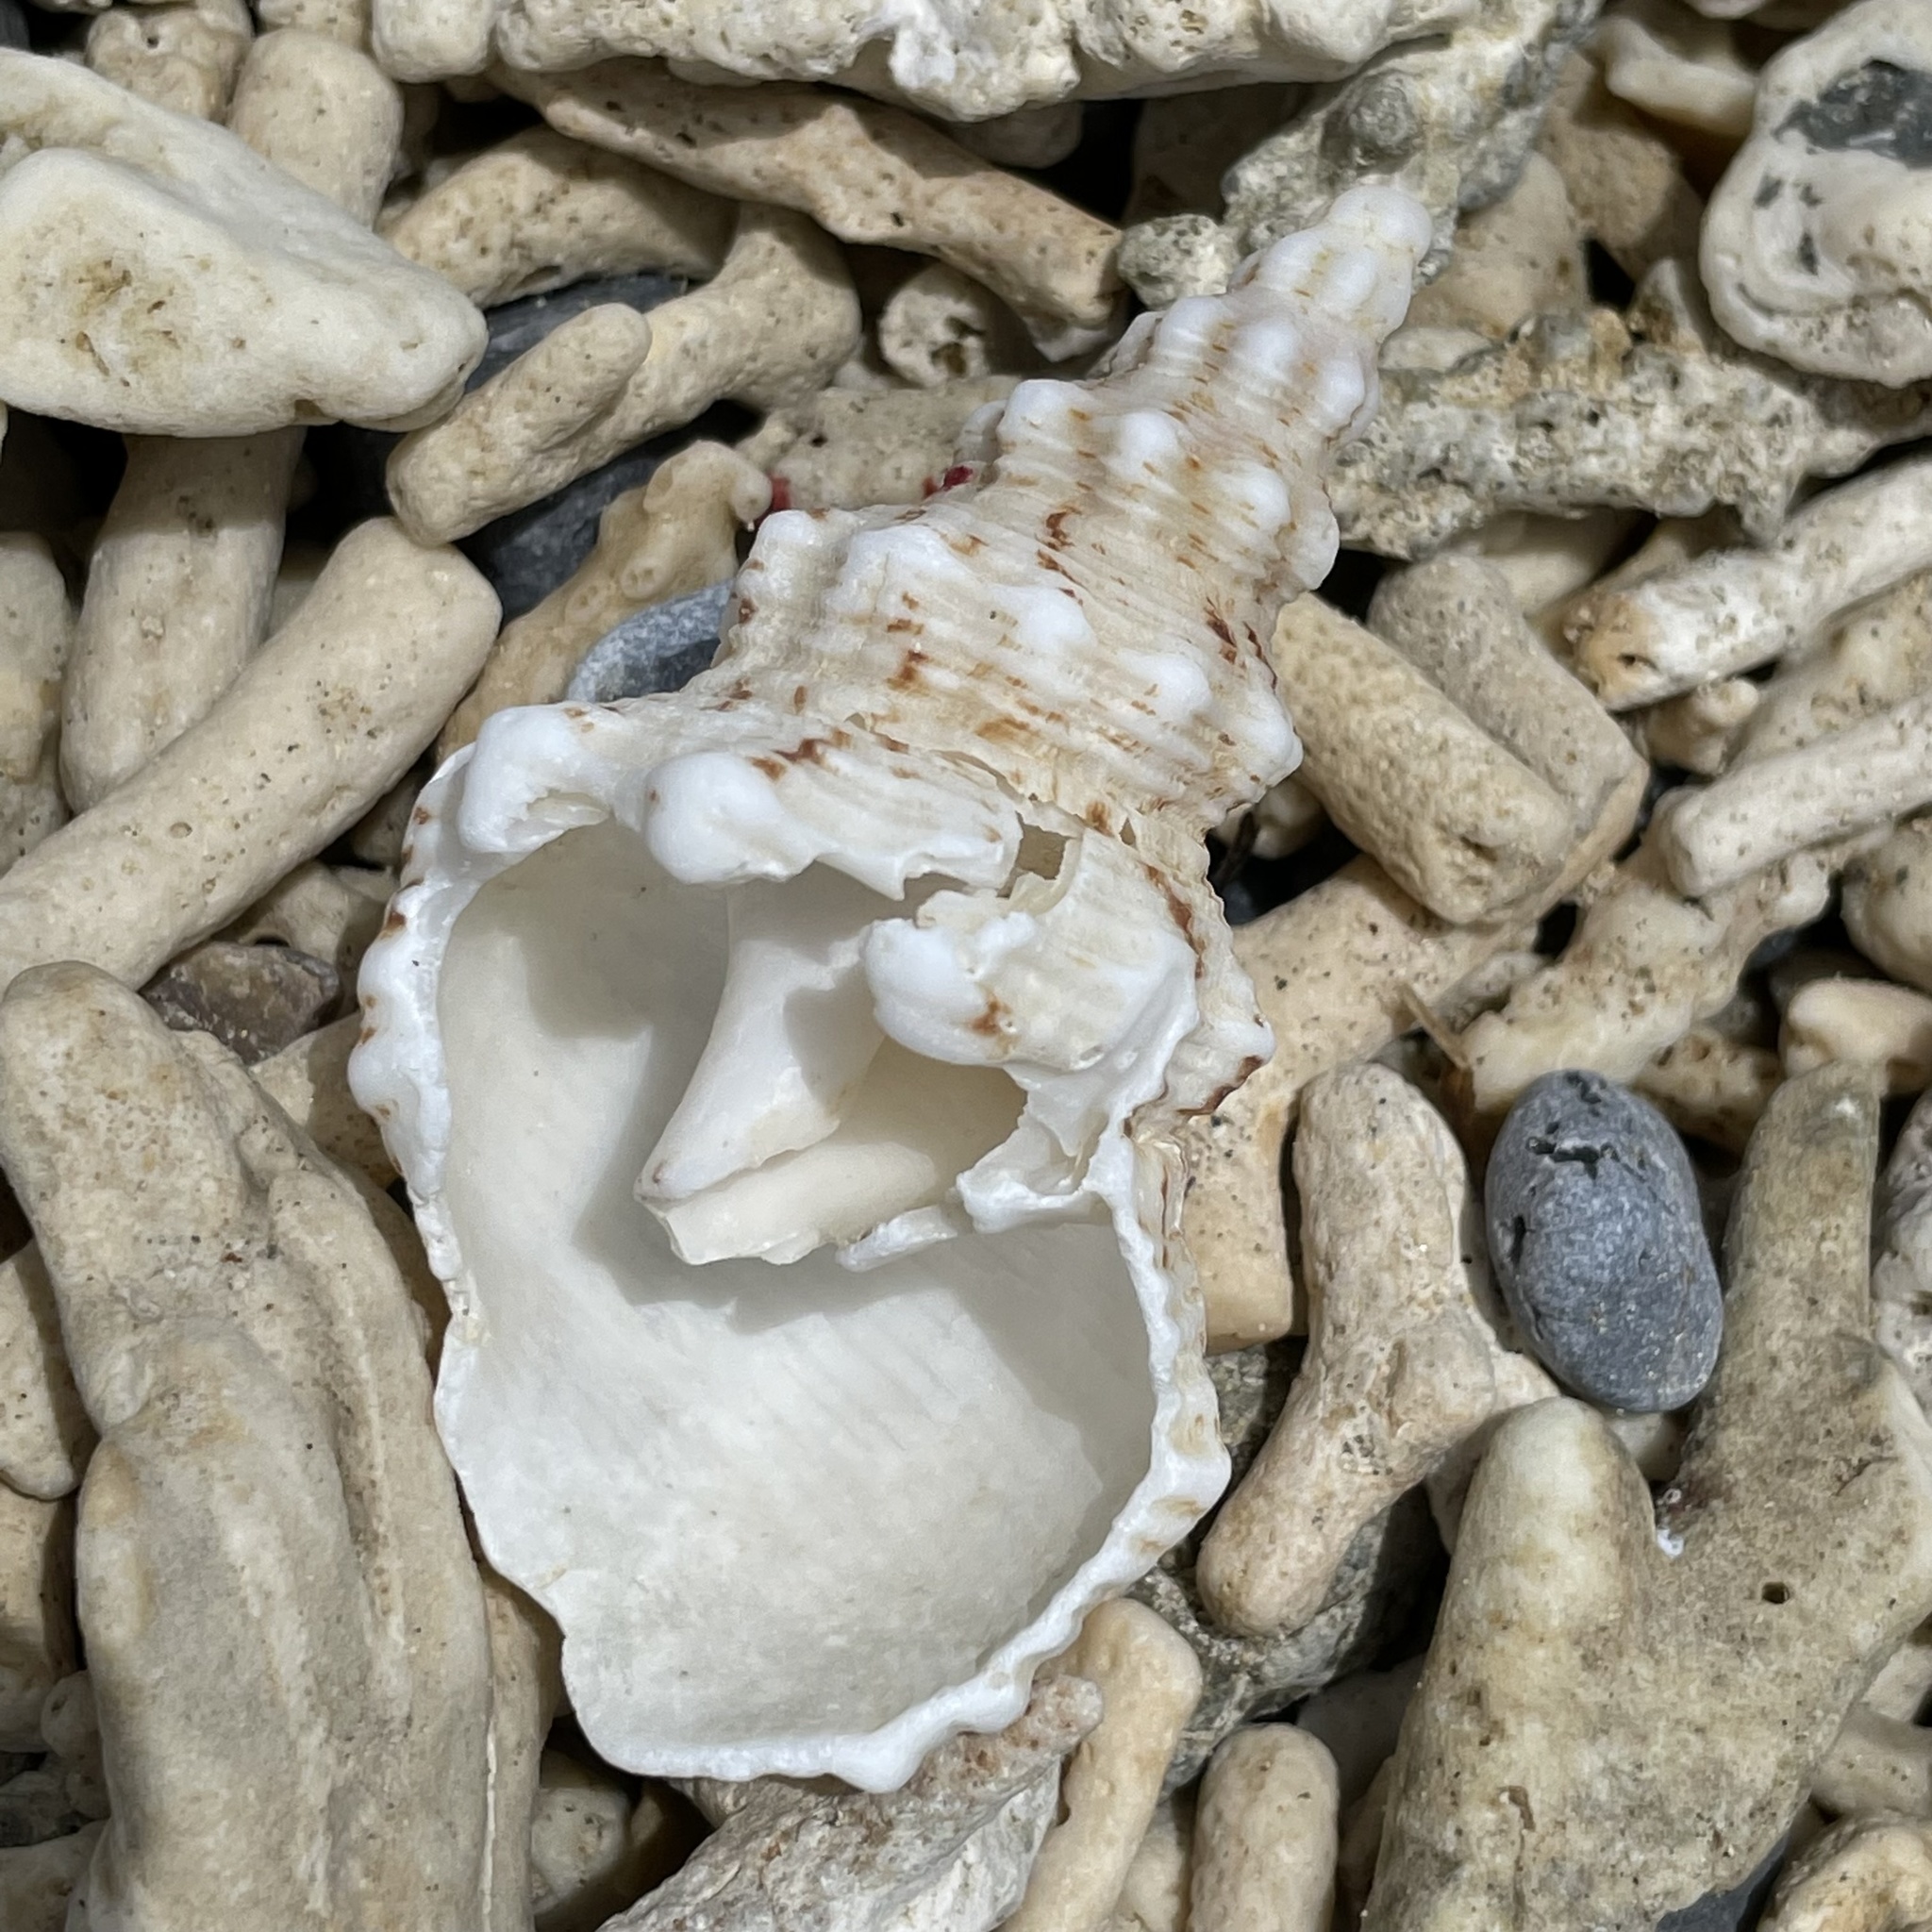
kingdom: Animalia
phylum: Mollusca
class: Gastropoda
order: Neogastropoda
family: Fasciolariidae
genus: Marmorofusus
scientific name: Marmorofusus nicobaricus
